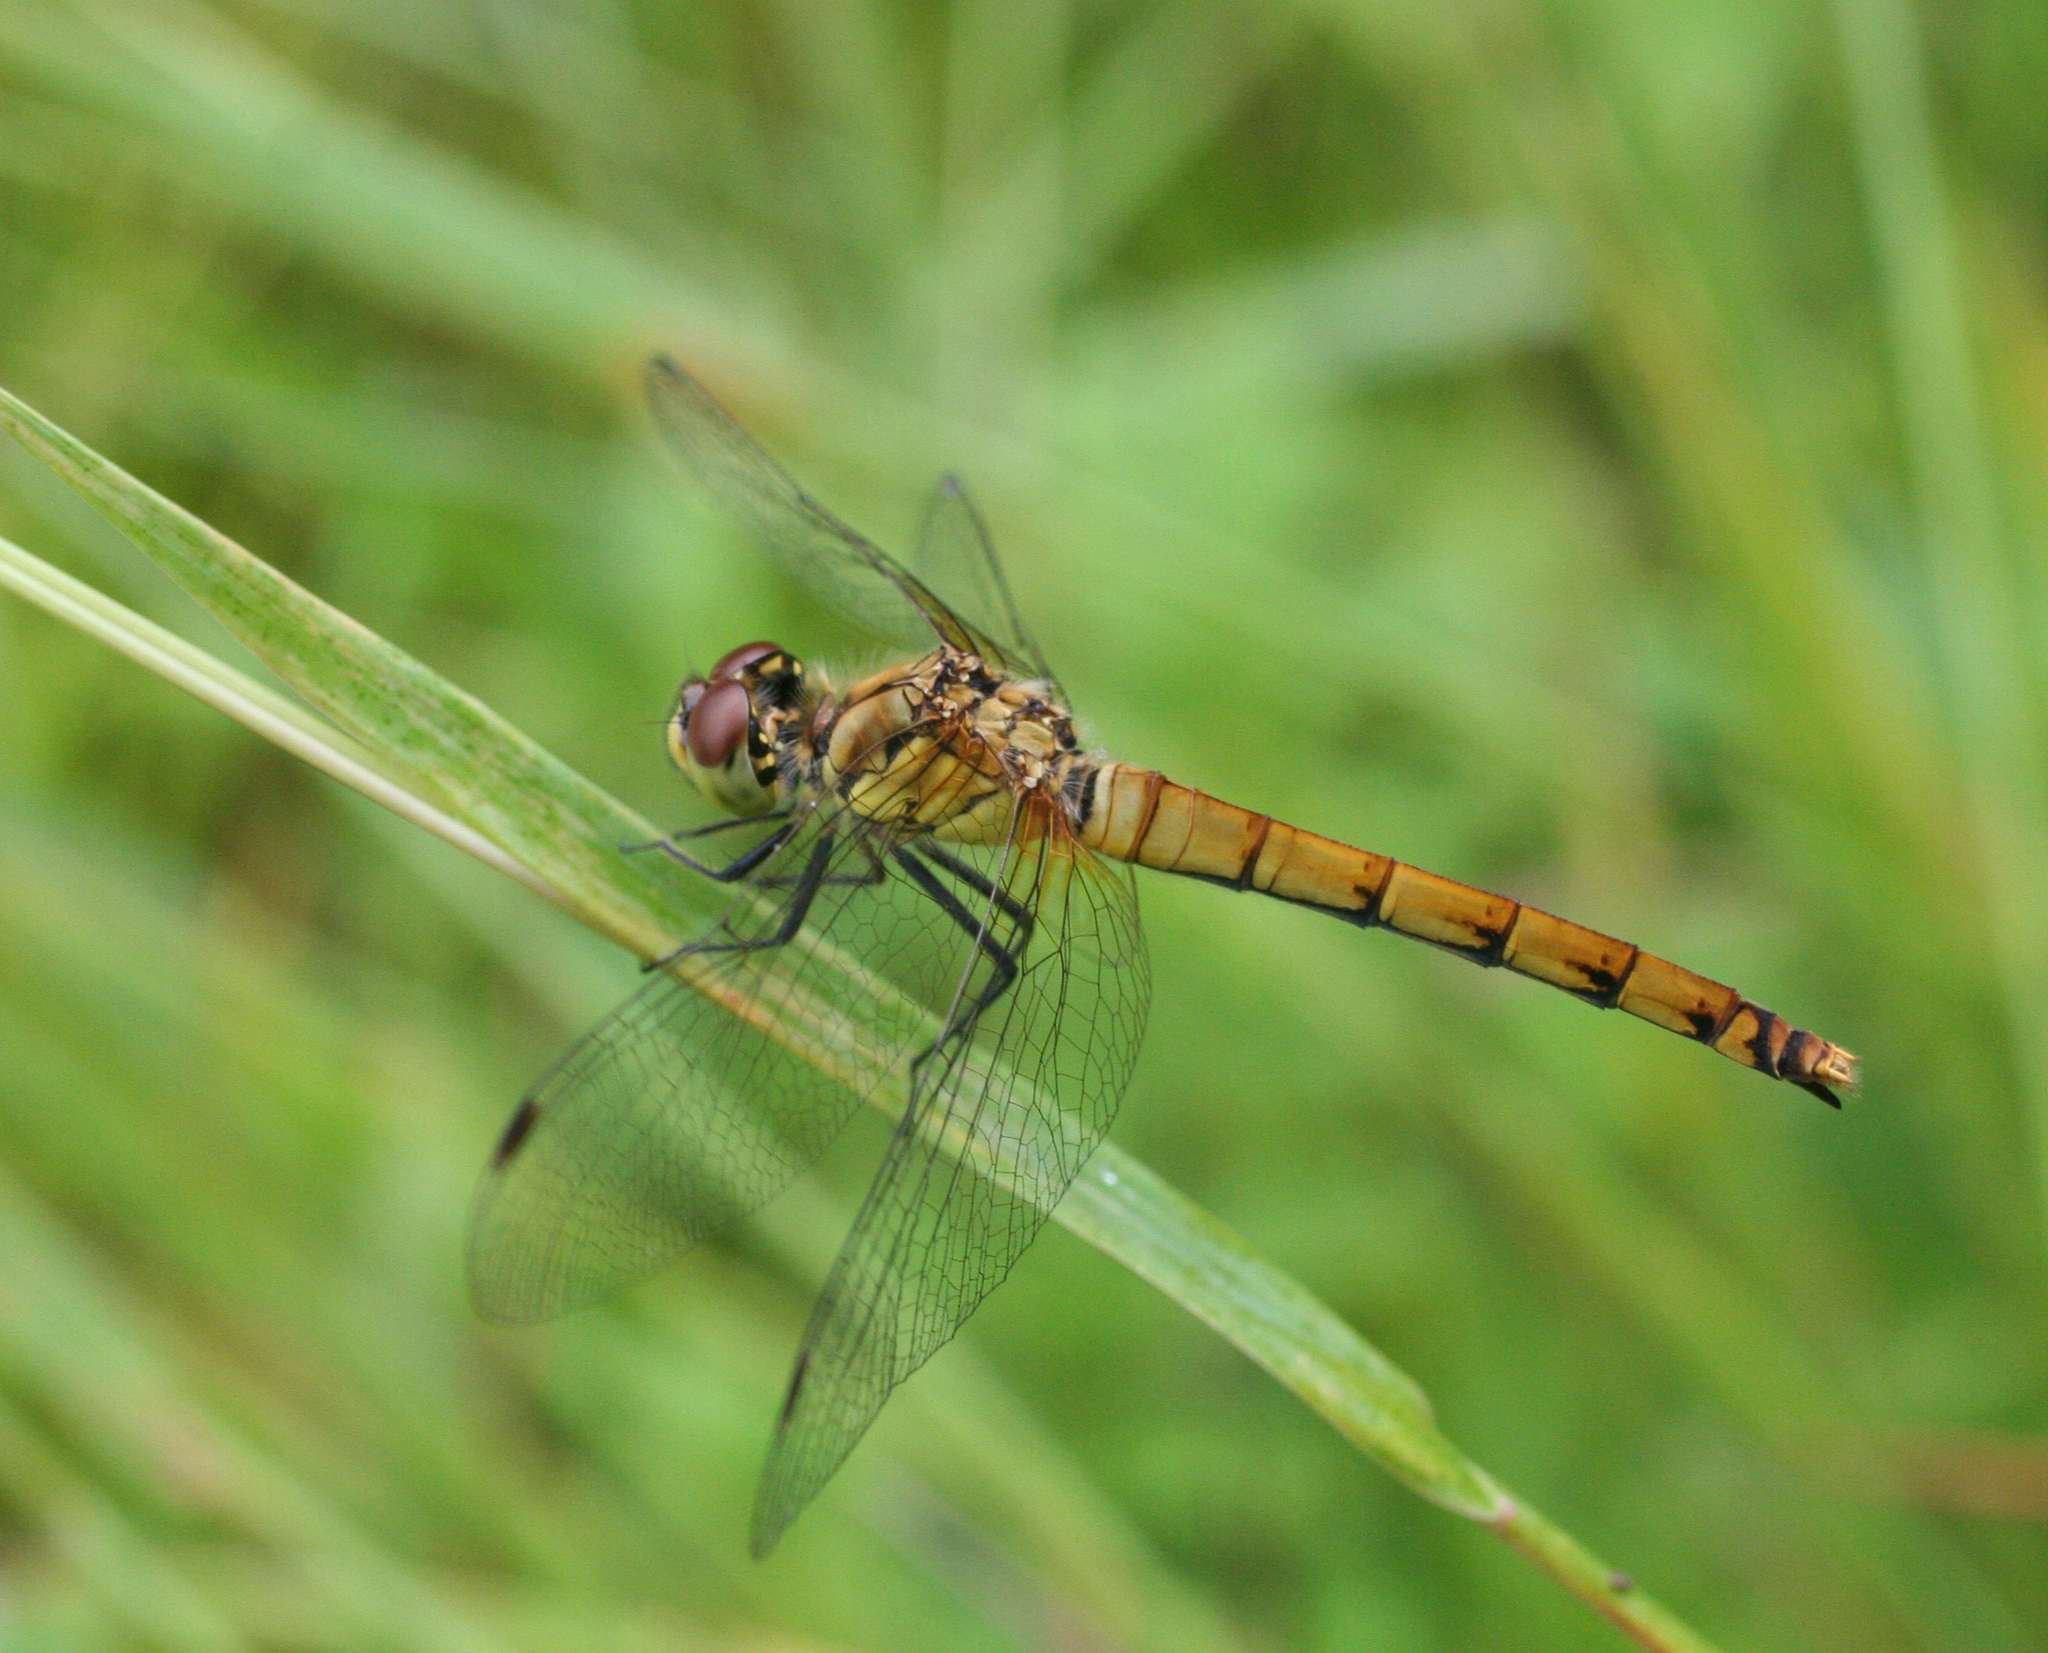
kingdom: Animalia
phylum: Arthropoda
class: Insecta
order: Odonata
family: Libellulidae
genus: Sympetrum
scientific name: Sympetrum cordulegaster
